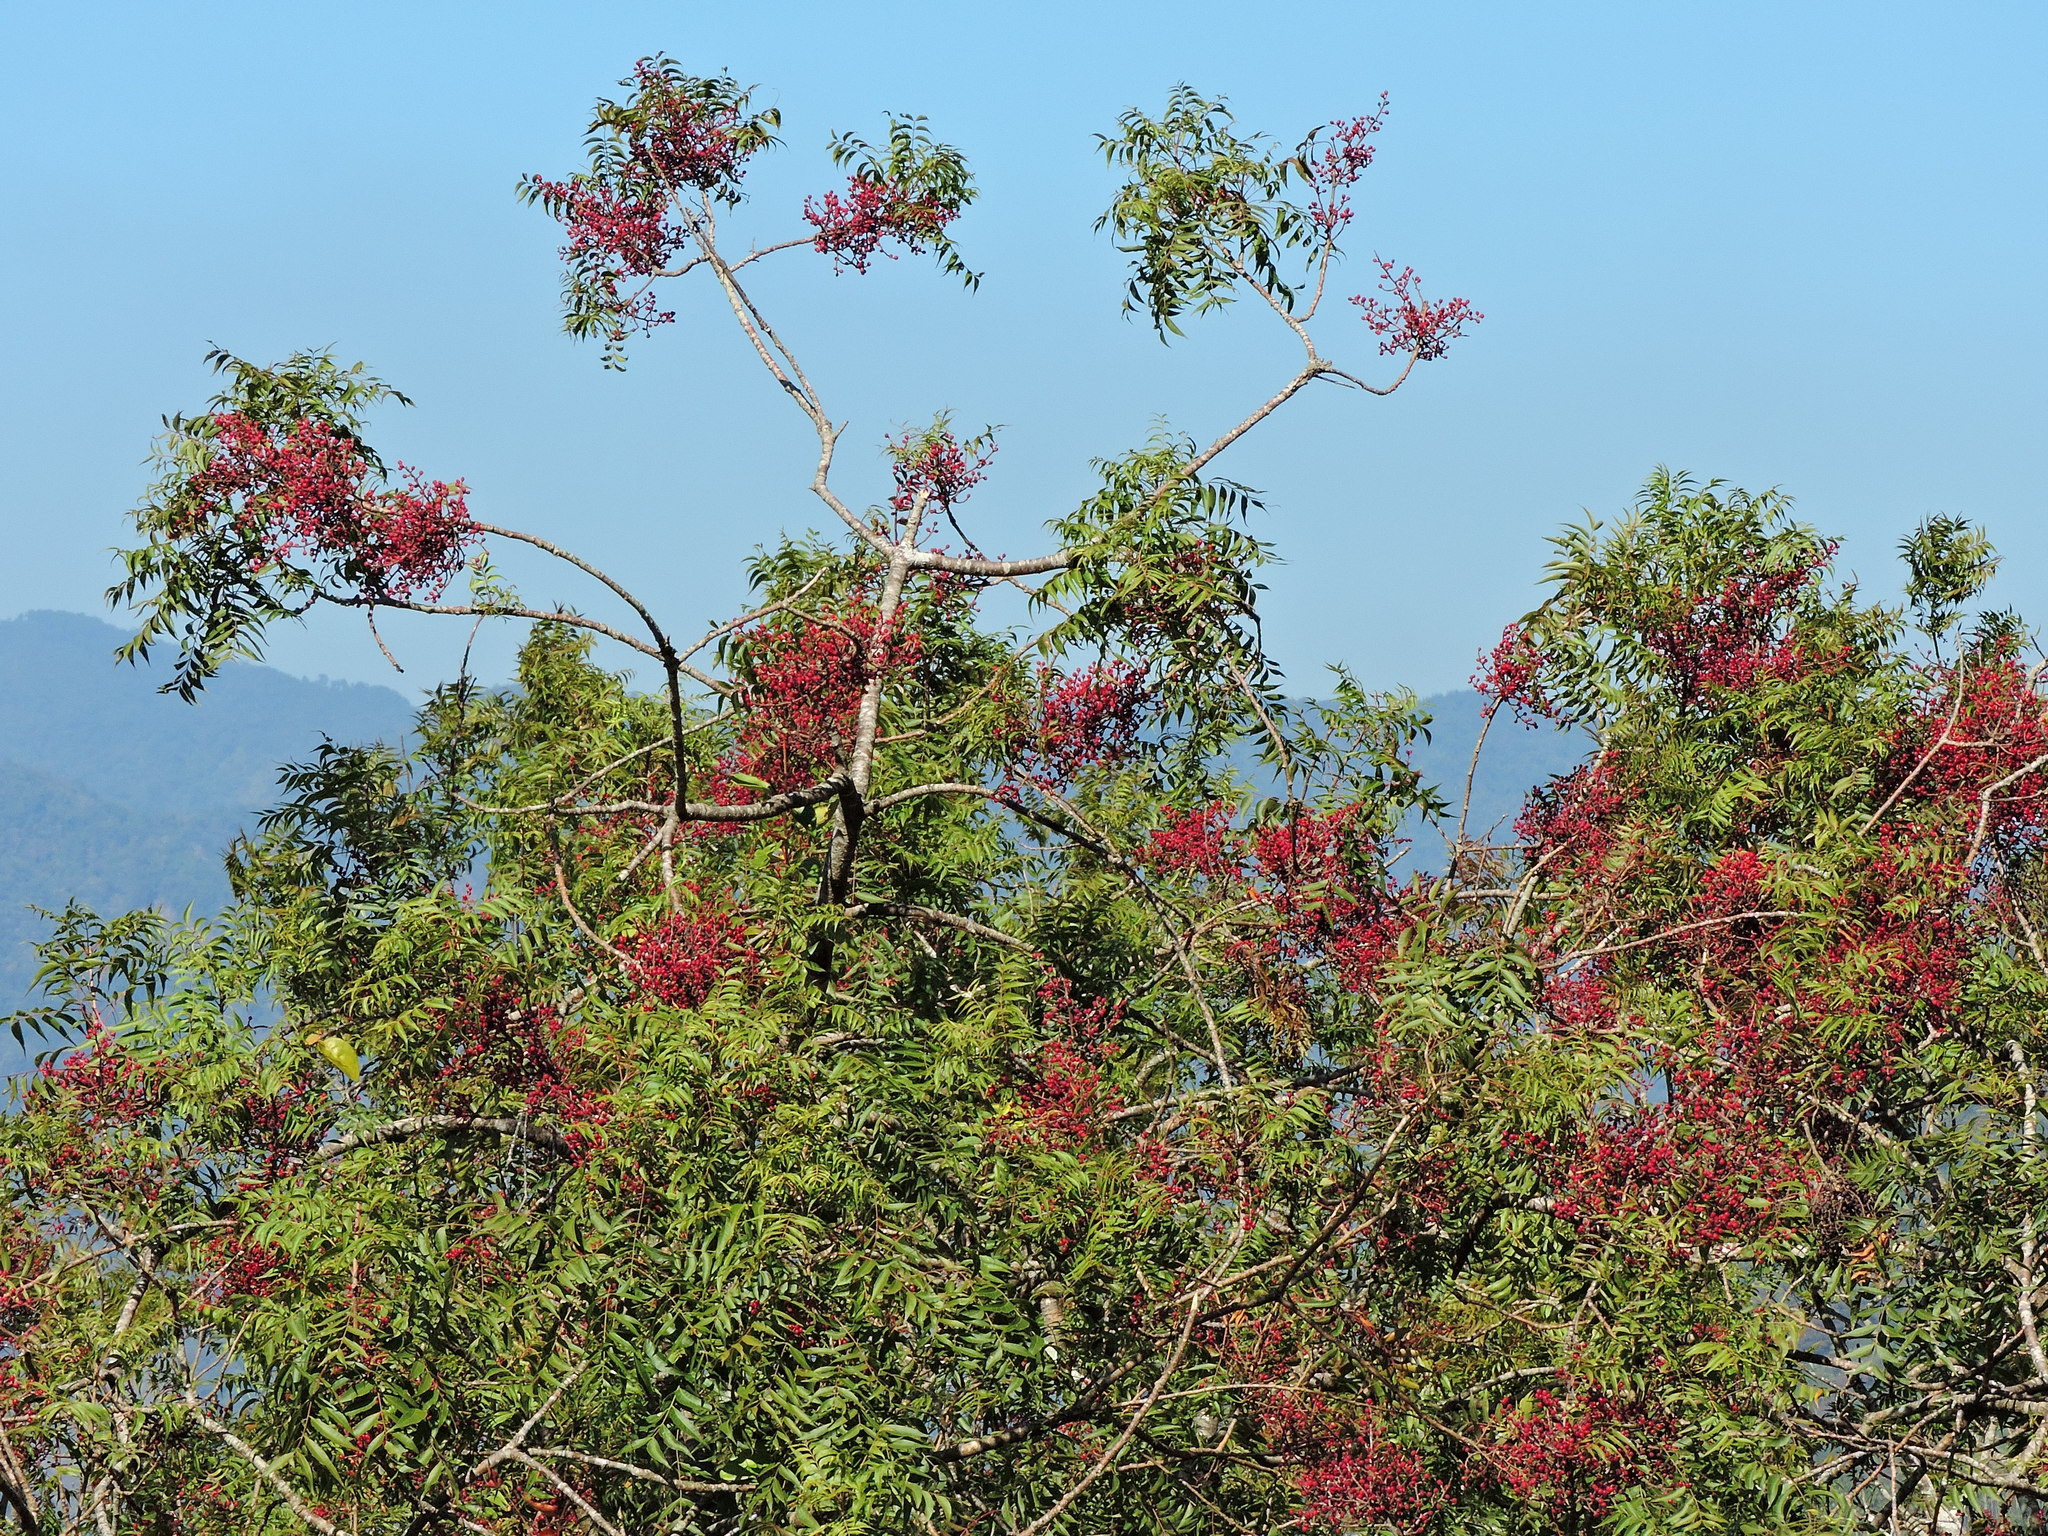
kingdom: Plantae
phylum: Tracheophyta
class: Magnoliopsida
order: Sapindales
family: Anacardiaceae
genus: Pistacia
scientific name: Pistacia chinensis
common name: Chinese pistache
